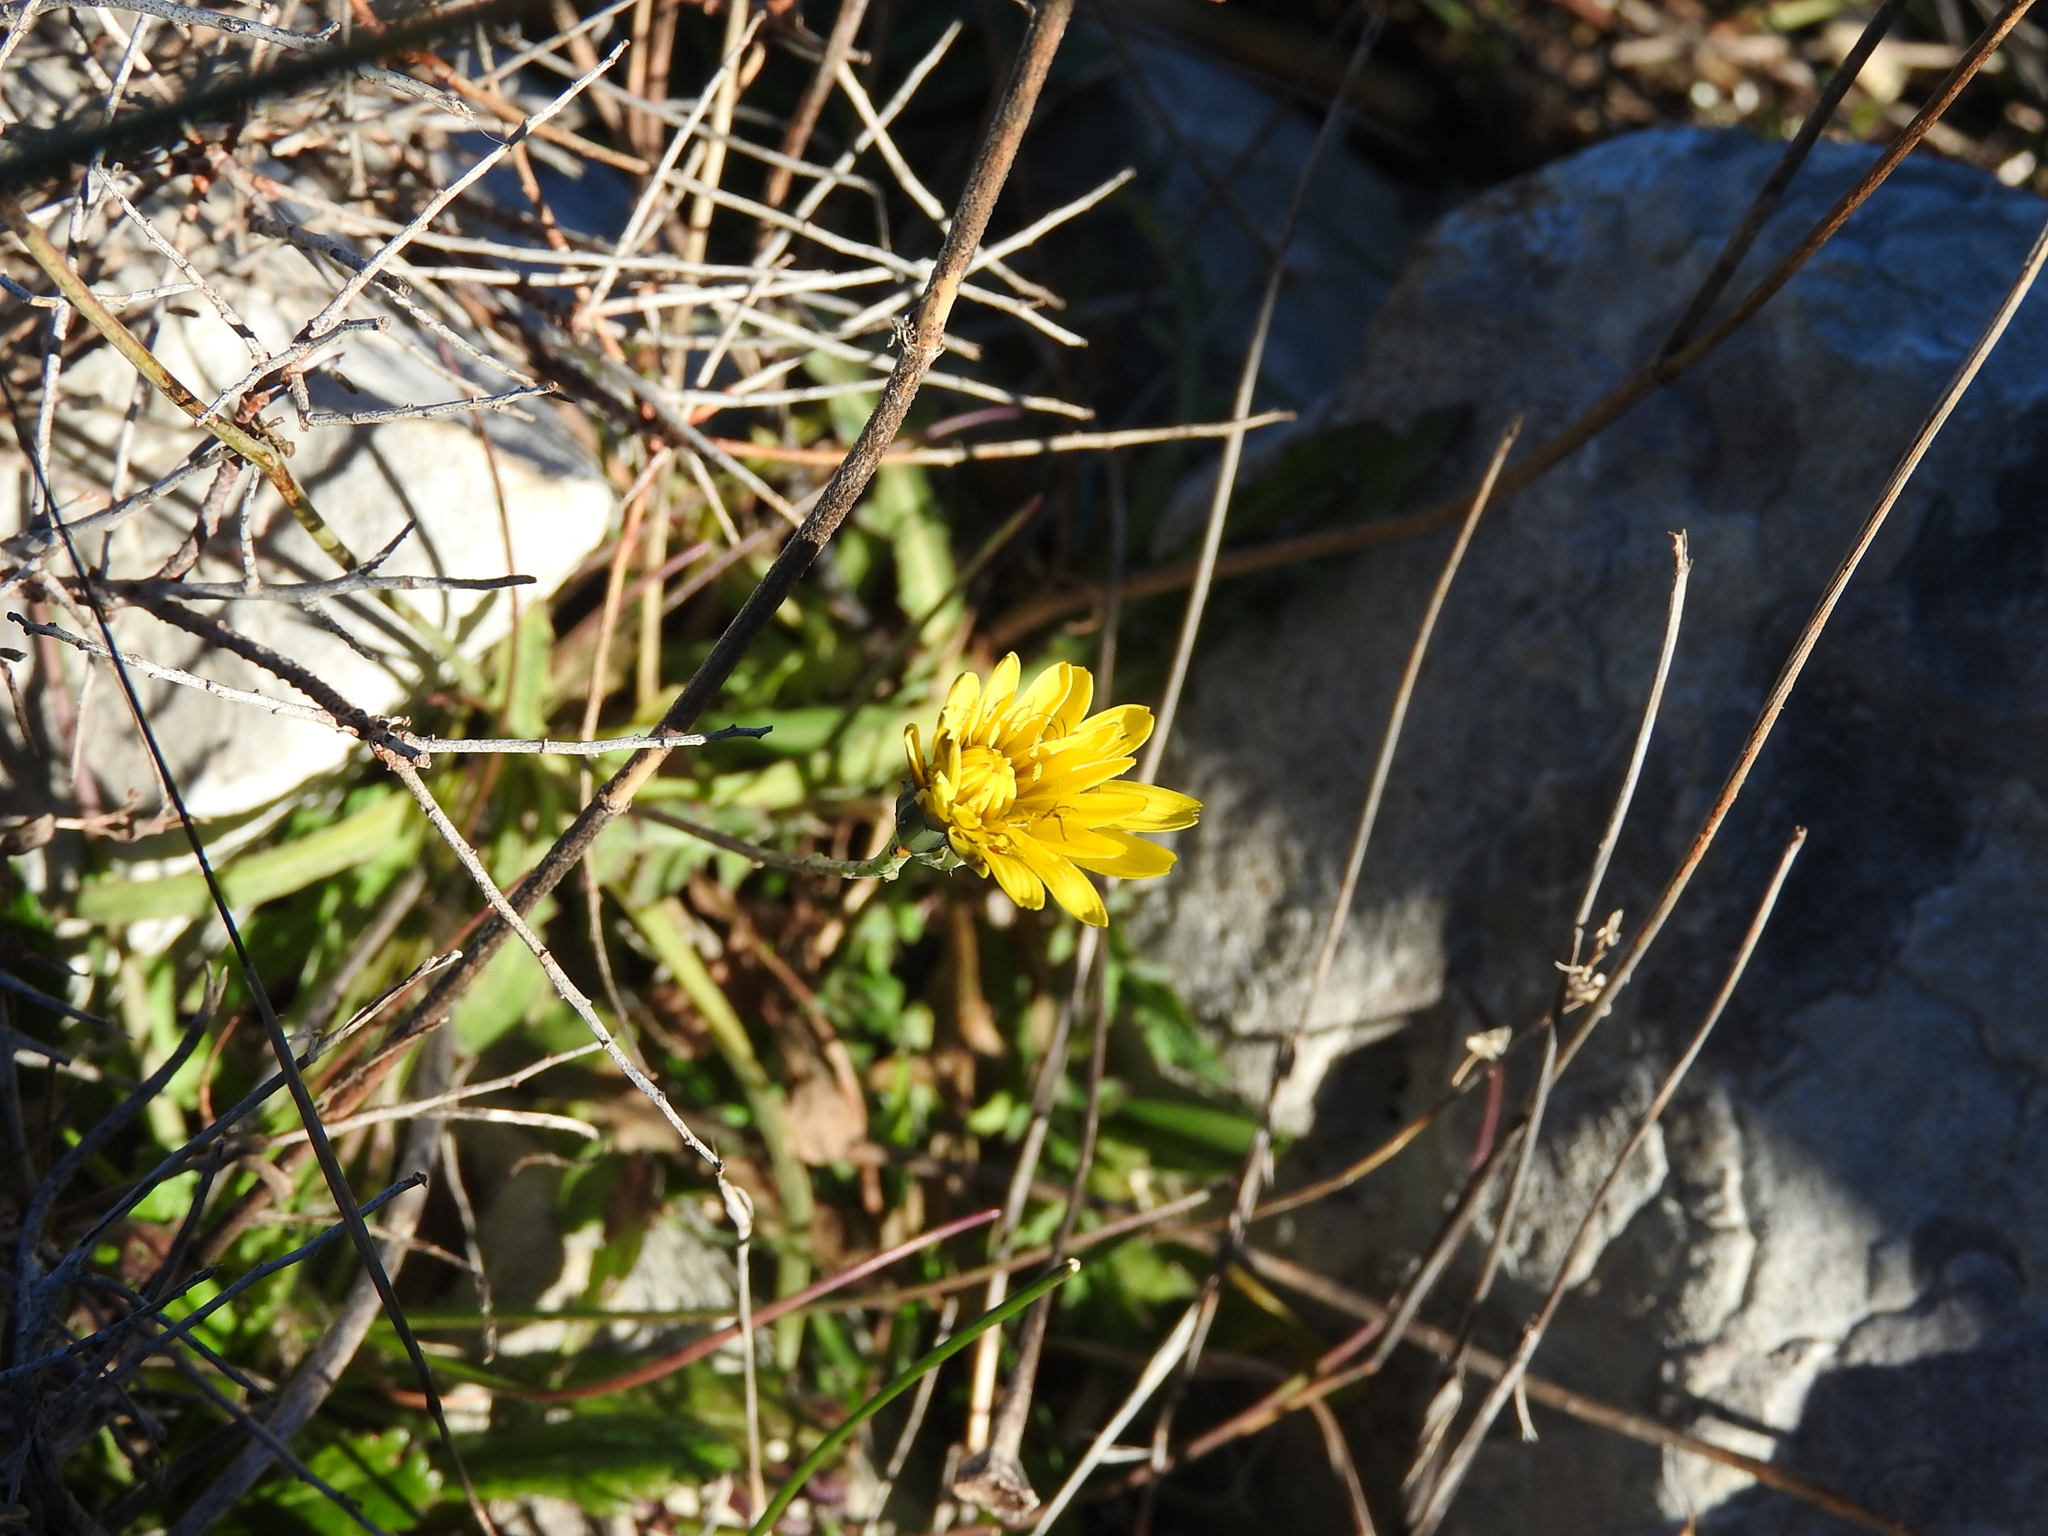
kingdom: Plantae
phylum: Tracheophyta
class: Magnoliopsida
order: Asterales
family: Asteraceae
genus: Reichardia
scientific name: Reichardia picroides
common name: Common brighteyes
